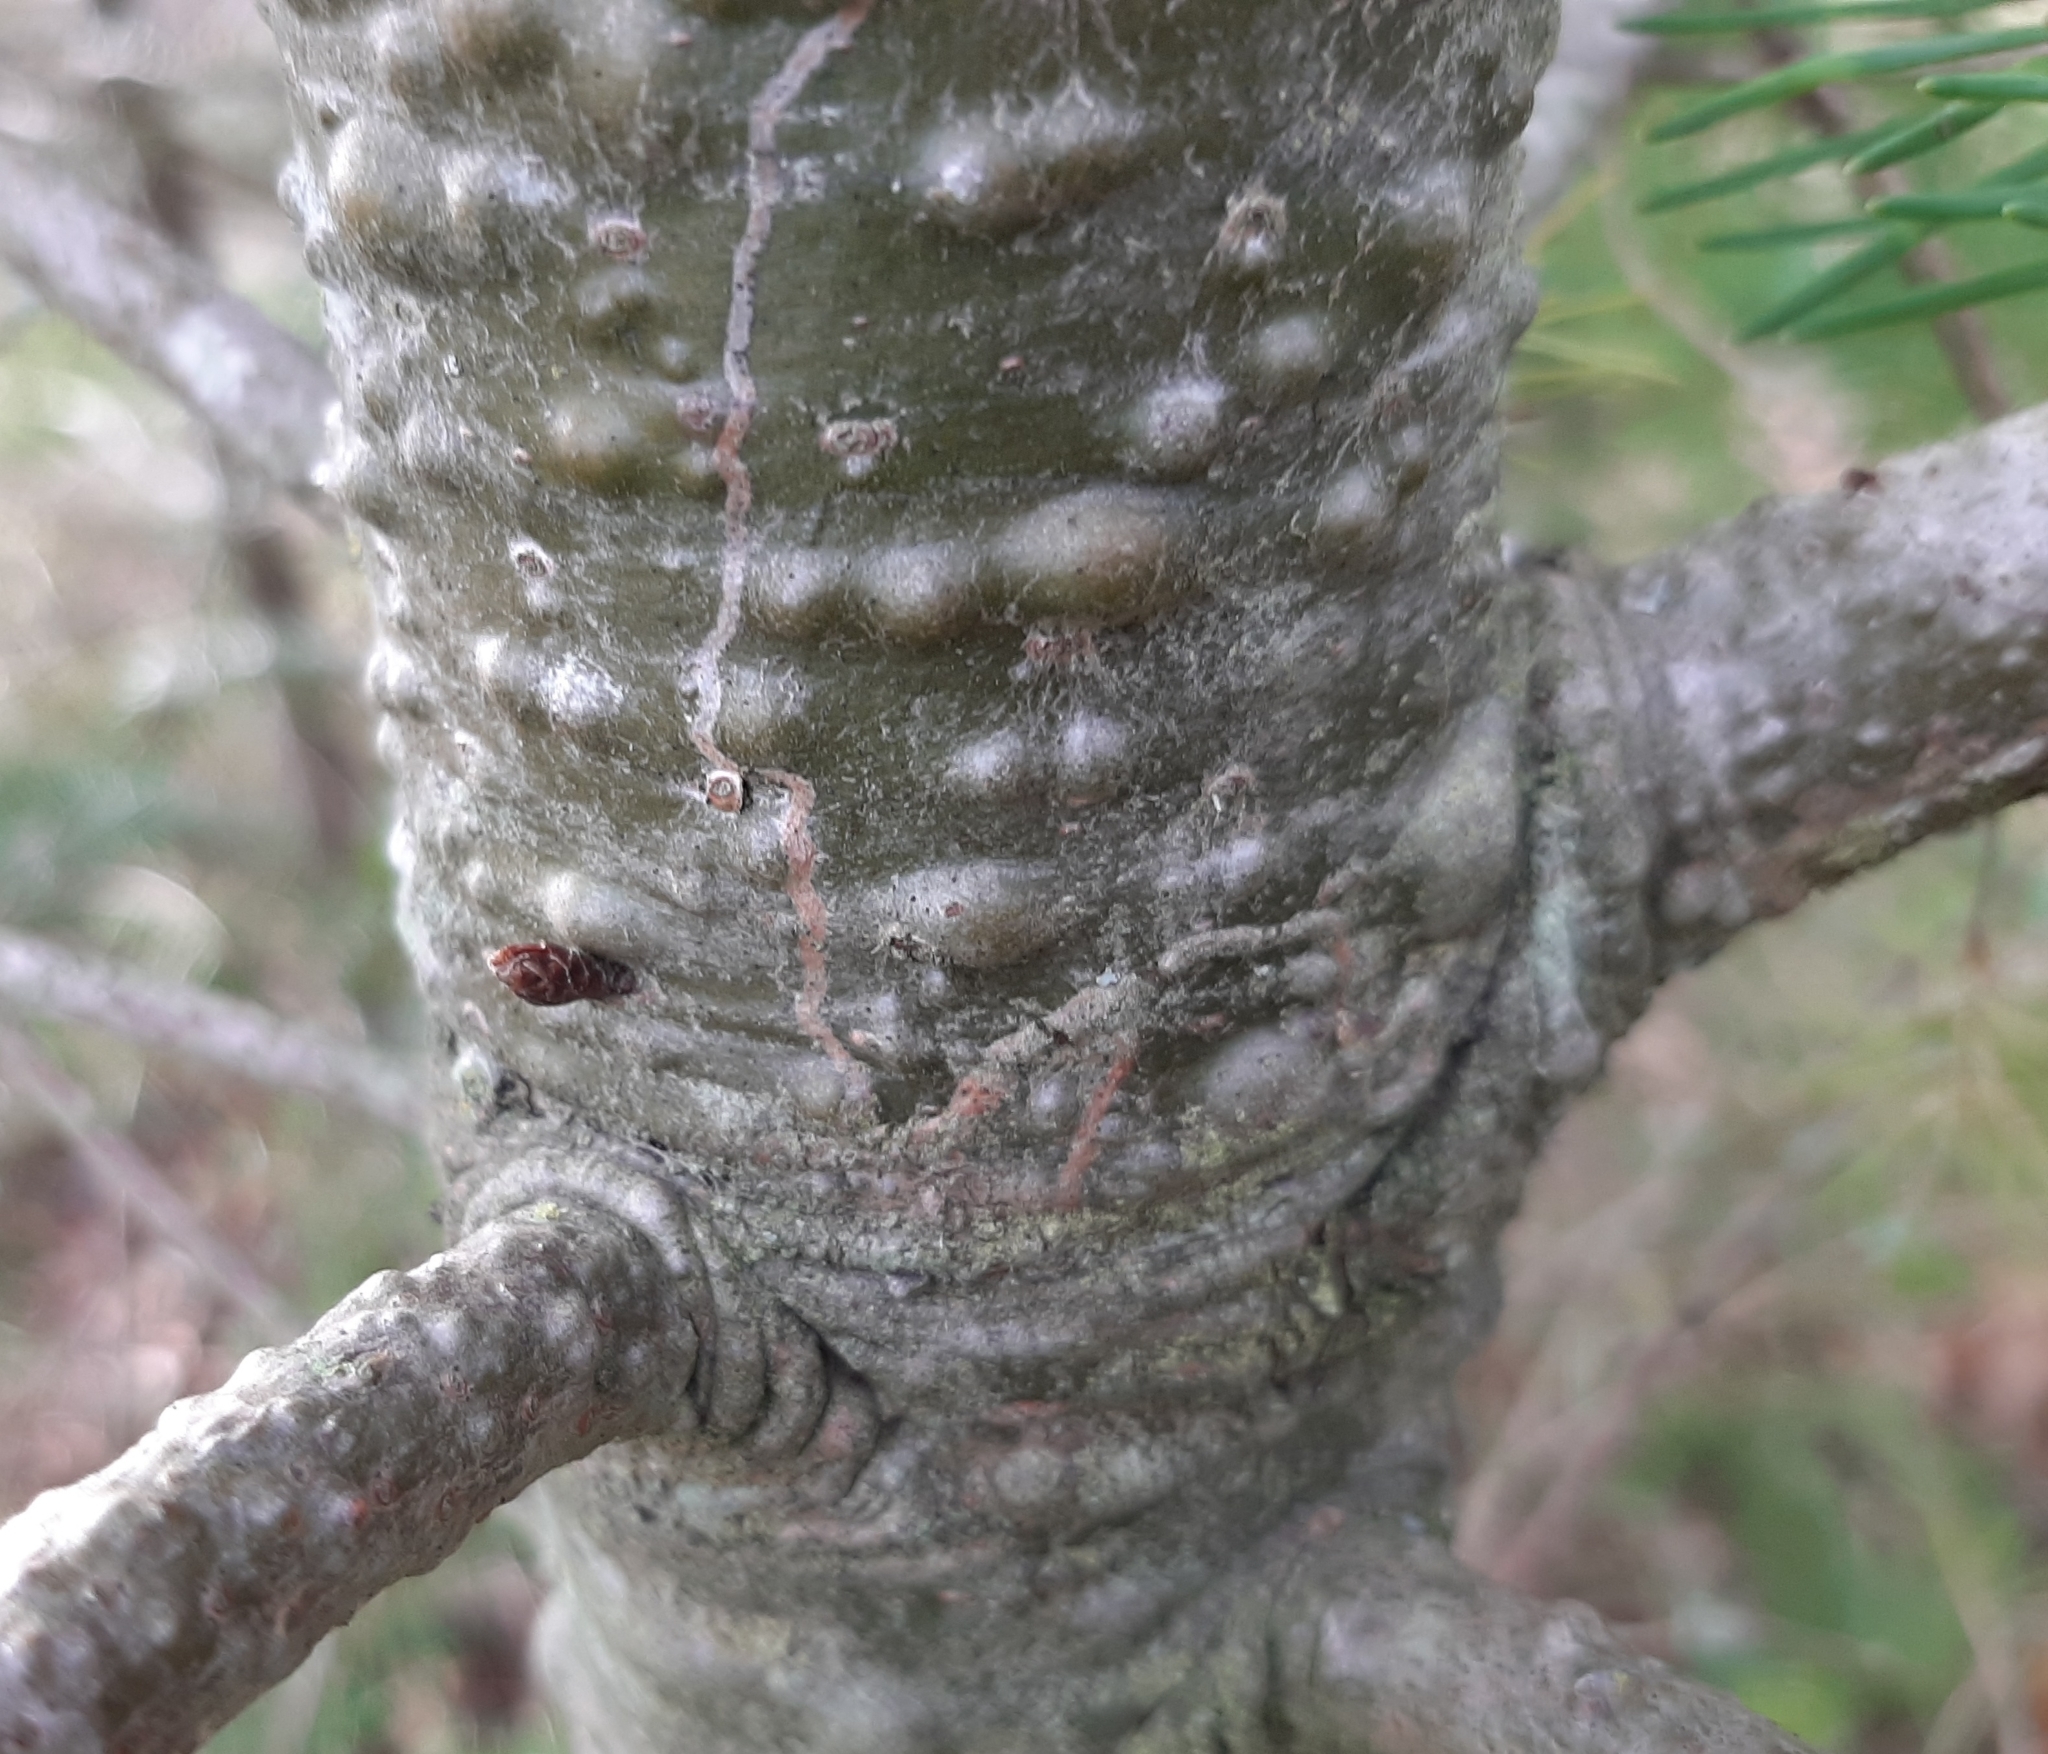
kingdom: Animalia
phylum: Arthropoda
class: Insecta
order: Lepidoptera
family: Gracillariidae
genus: Marmara
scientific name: Marmara oregonensis
